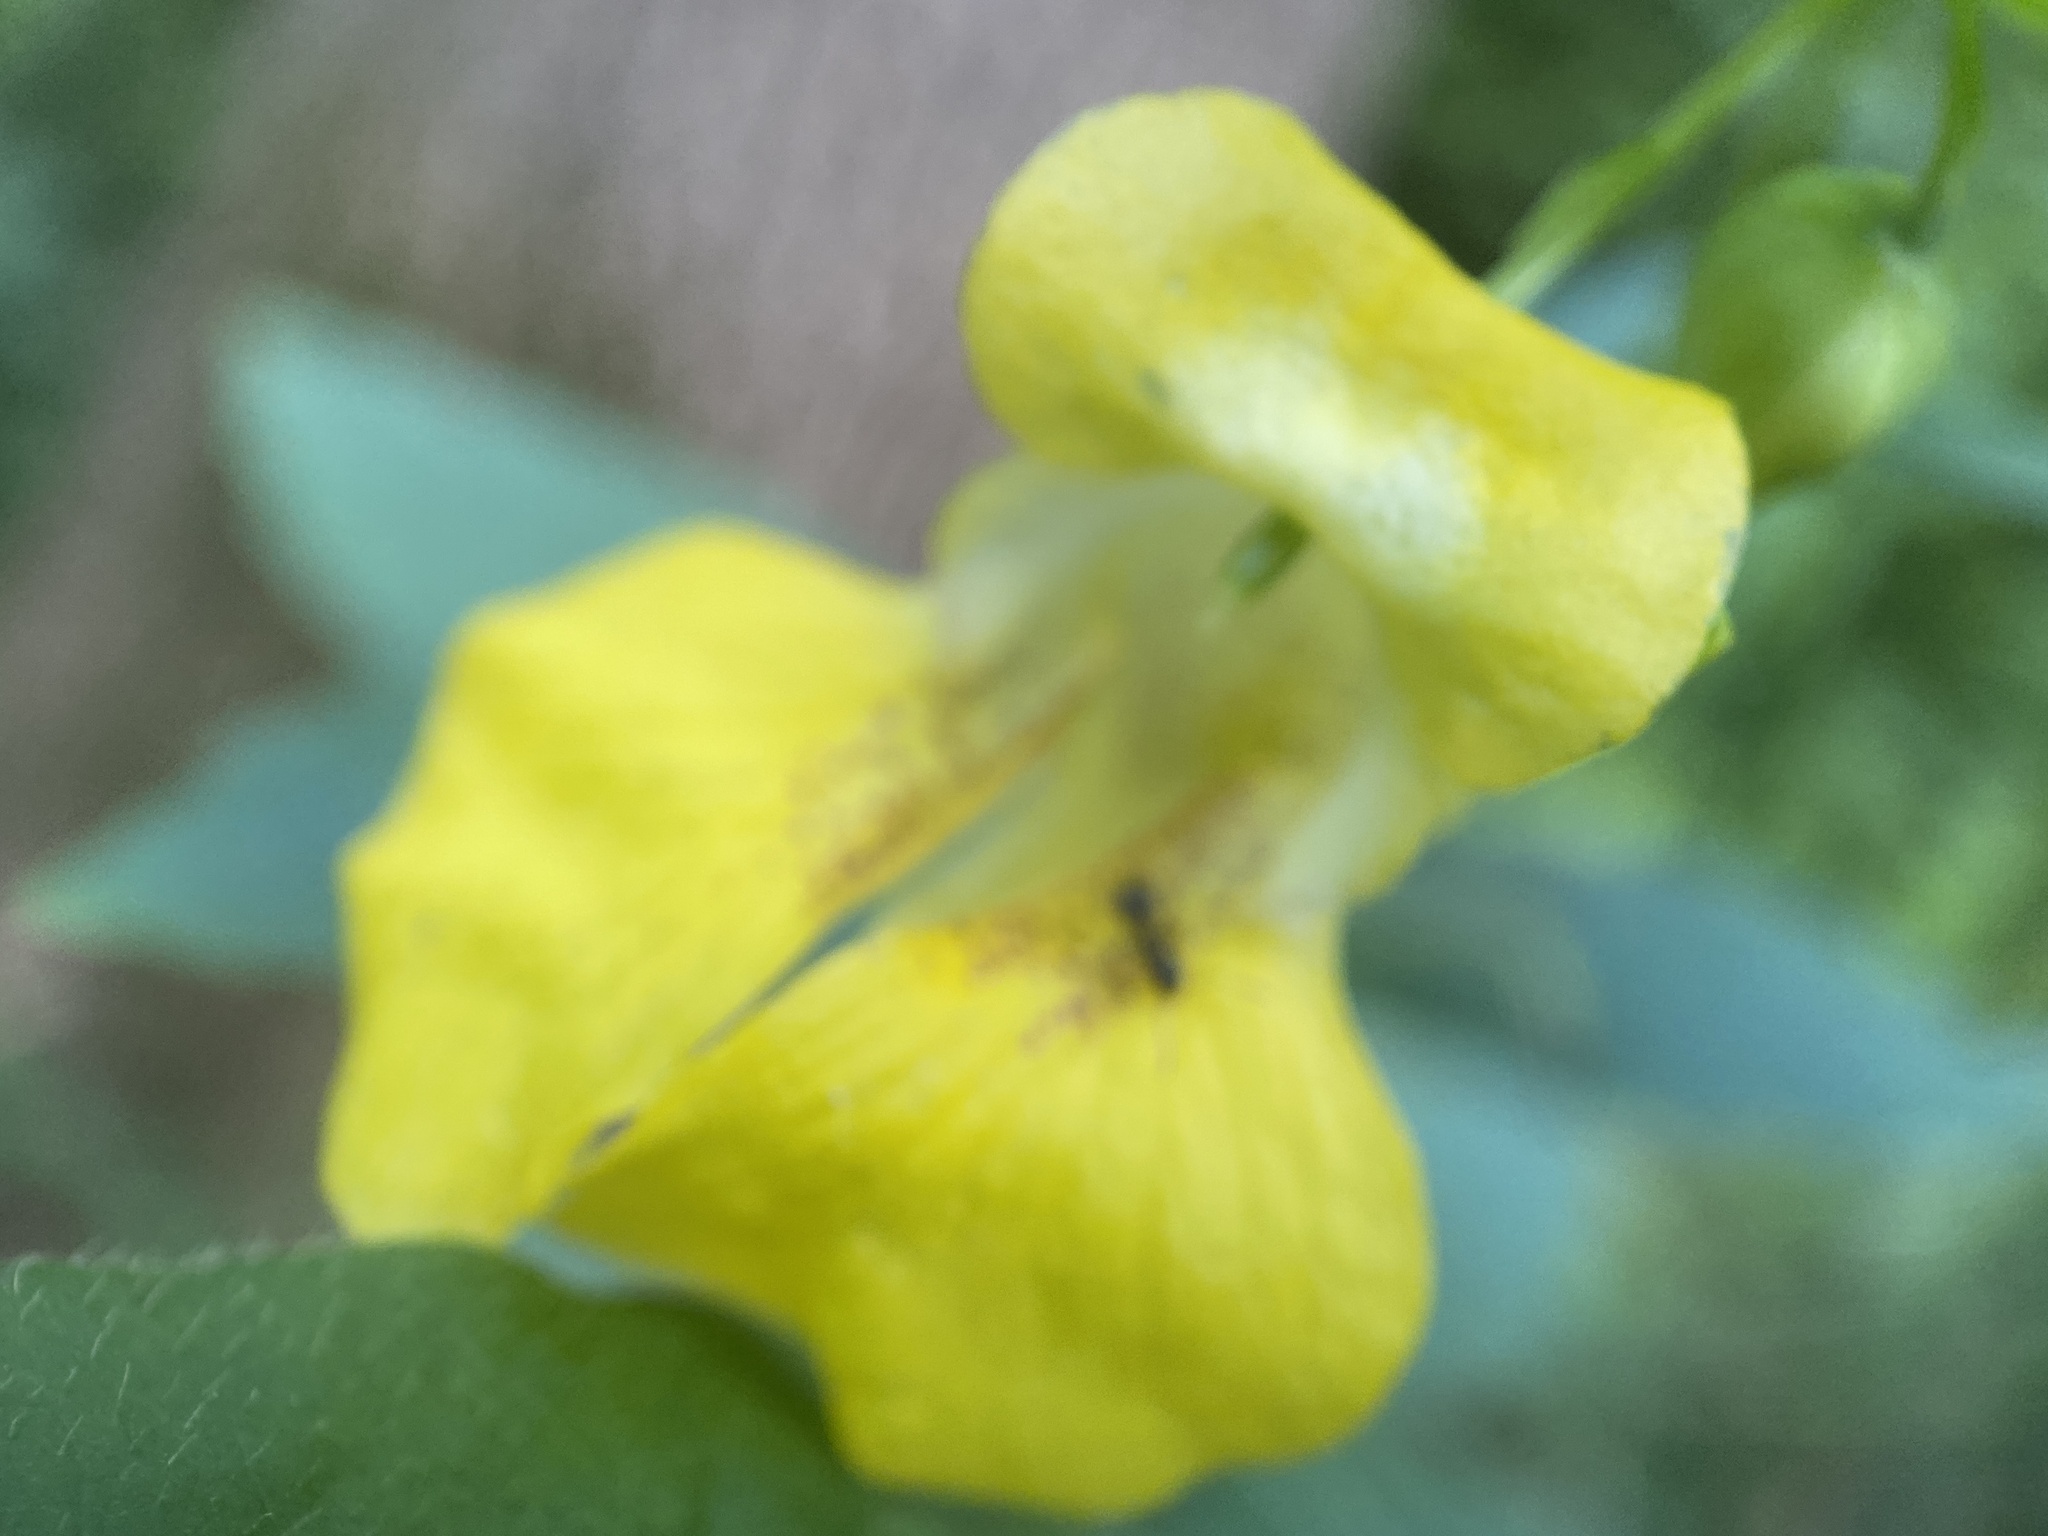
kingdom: Plantae
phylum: Tracheophyta
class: Magnoliopsida
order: Ericales
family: Balsaminaceae
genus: Impatiens
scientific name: Impatiens pallida
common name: Pale snapweed
